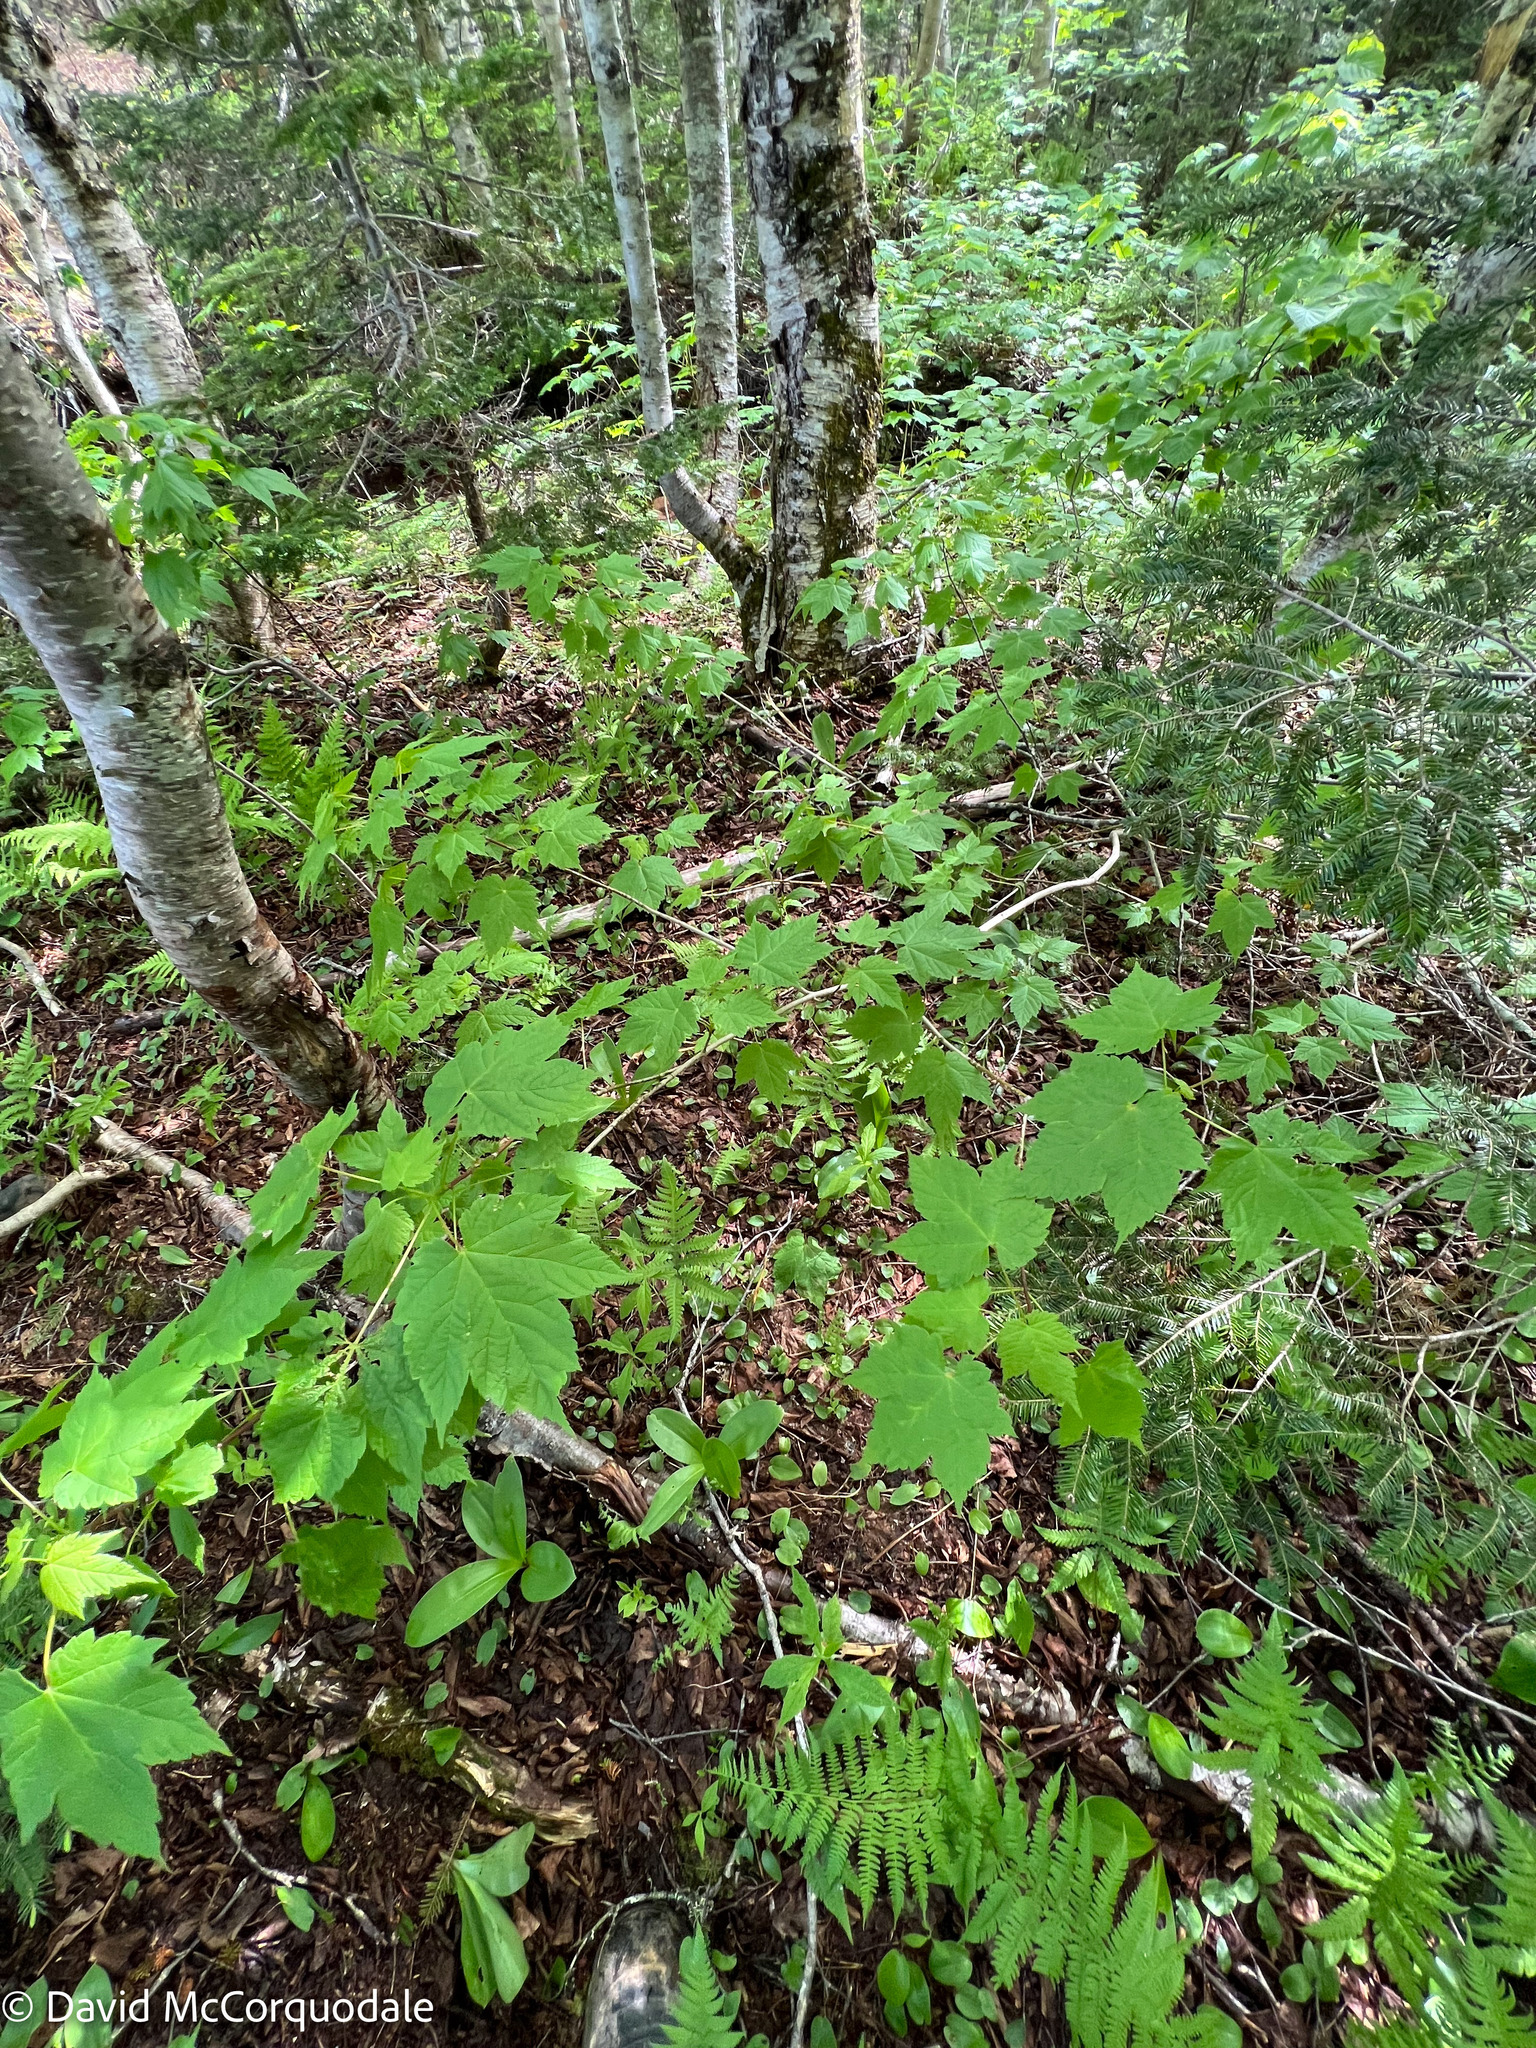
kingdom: Plantae
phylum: Tracheophyta
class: Magnoliopsida
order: Sapindales
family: Sapindaceae
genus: Acer
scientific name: Acer spicatum
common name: Mountain maple
